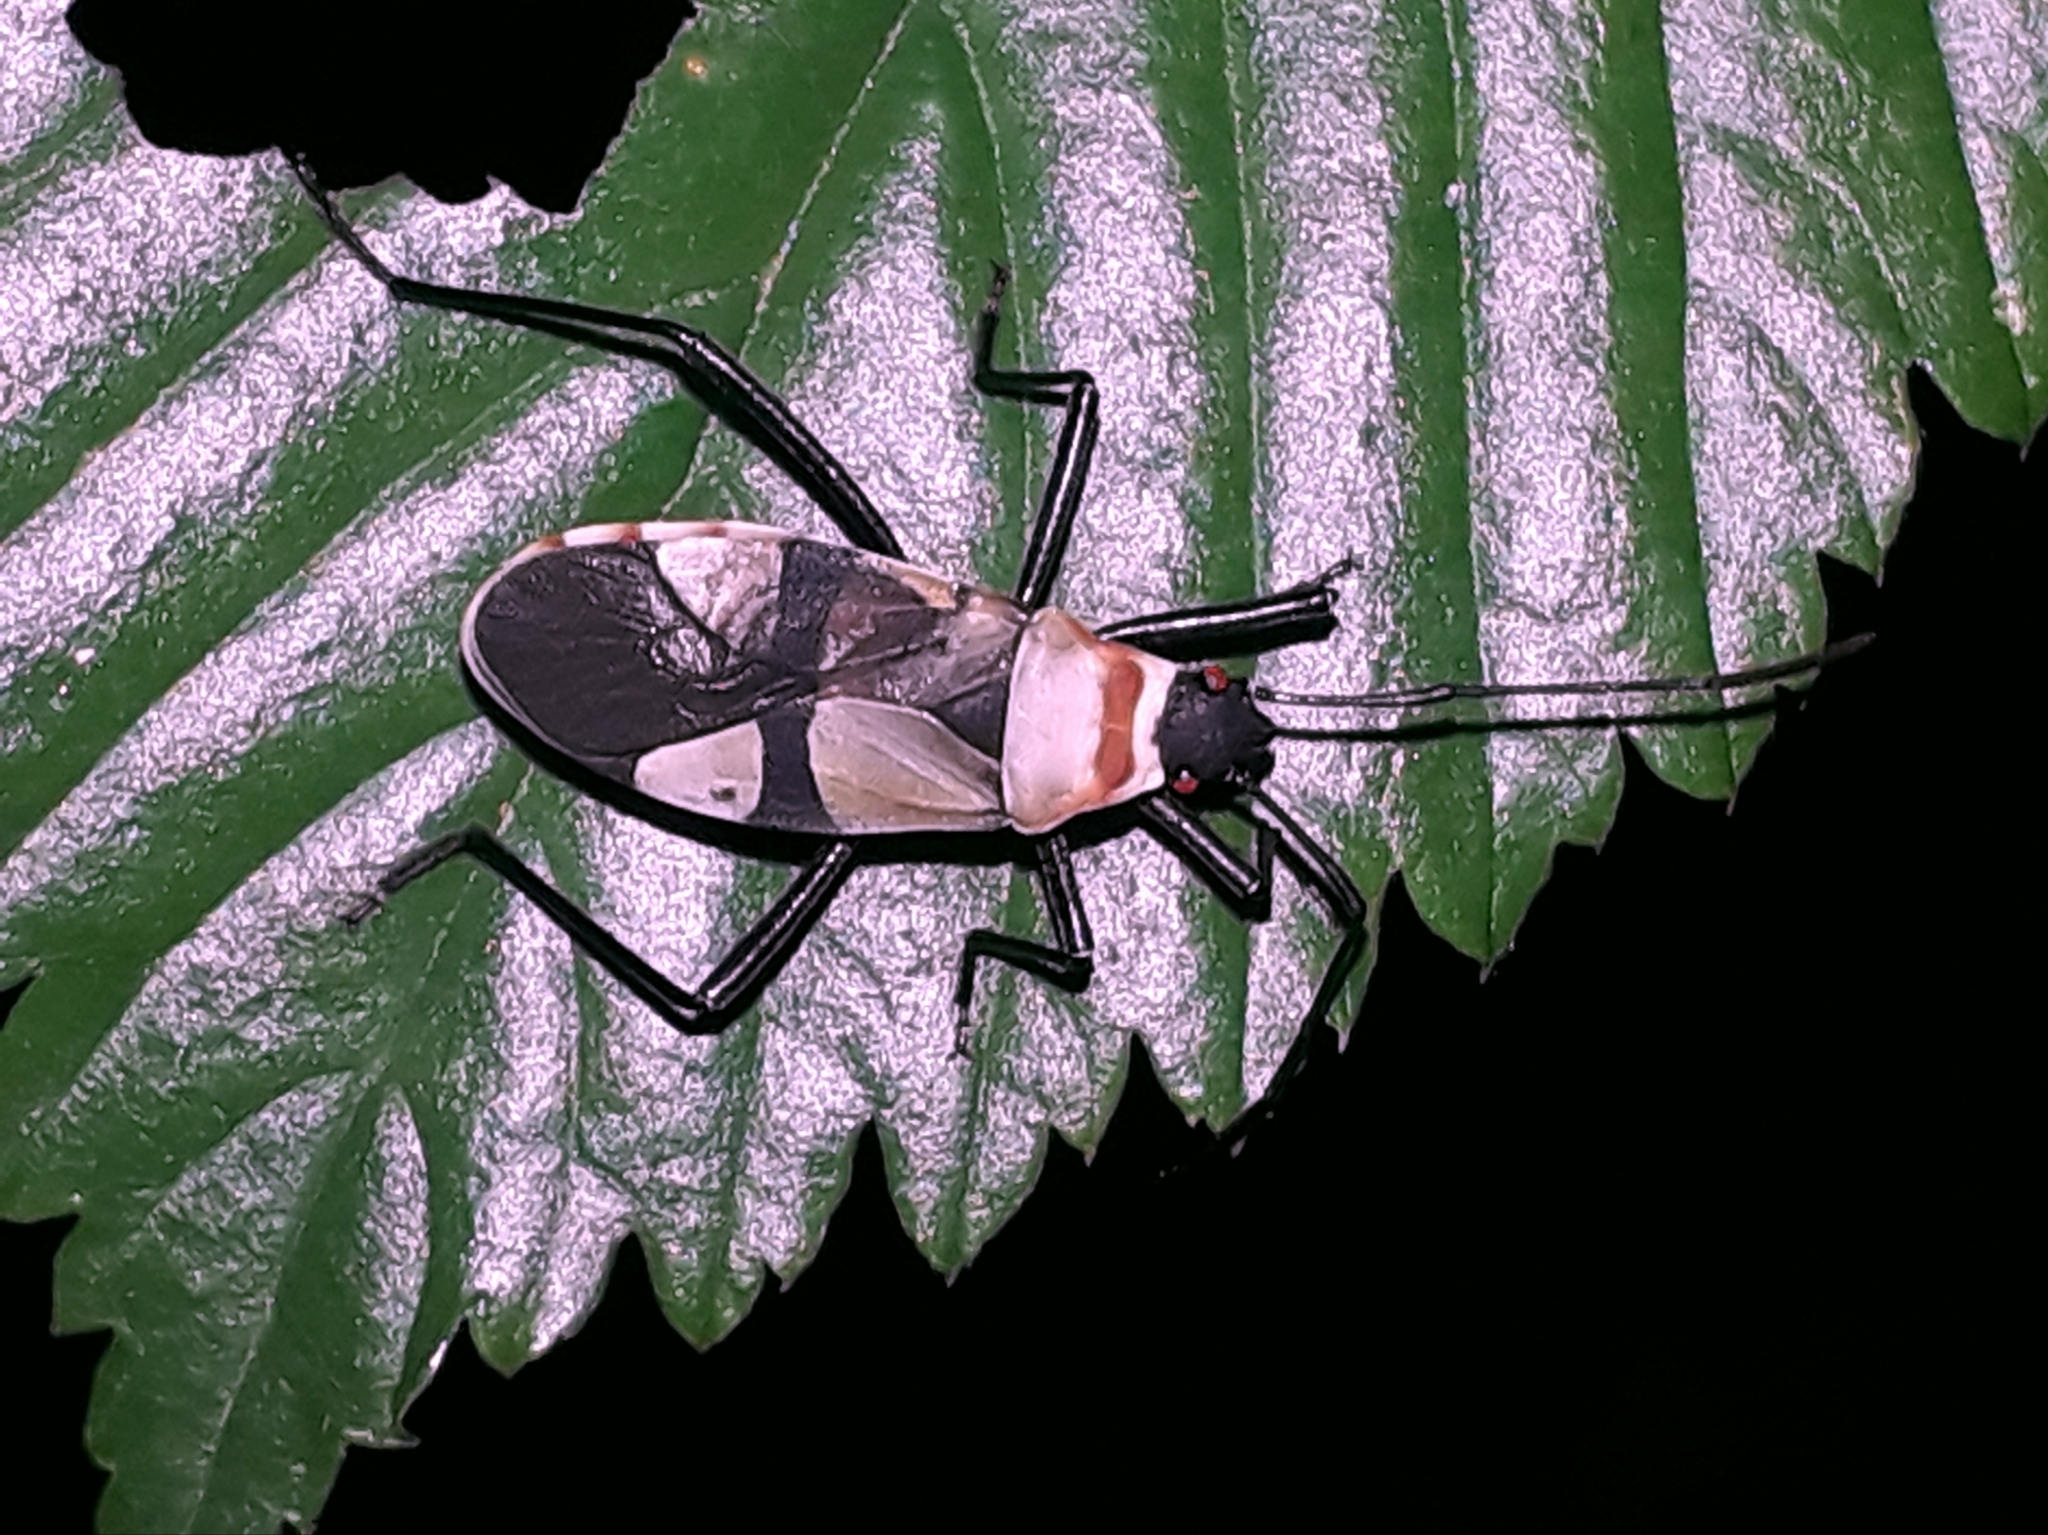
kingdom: Animalia
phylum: Arthropoda
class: Insecta
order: Hemiptera
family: Pyrrhocoridae
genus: Dysdercus
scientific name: Dysdercus
